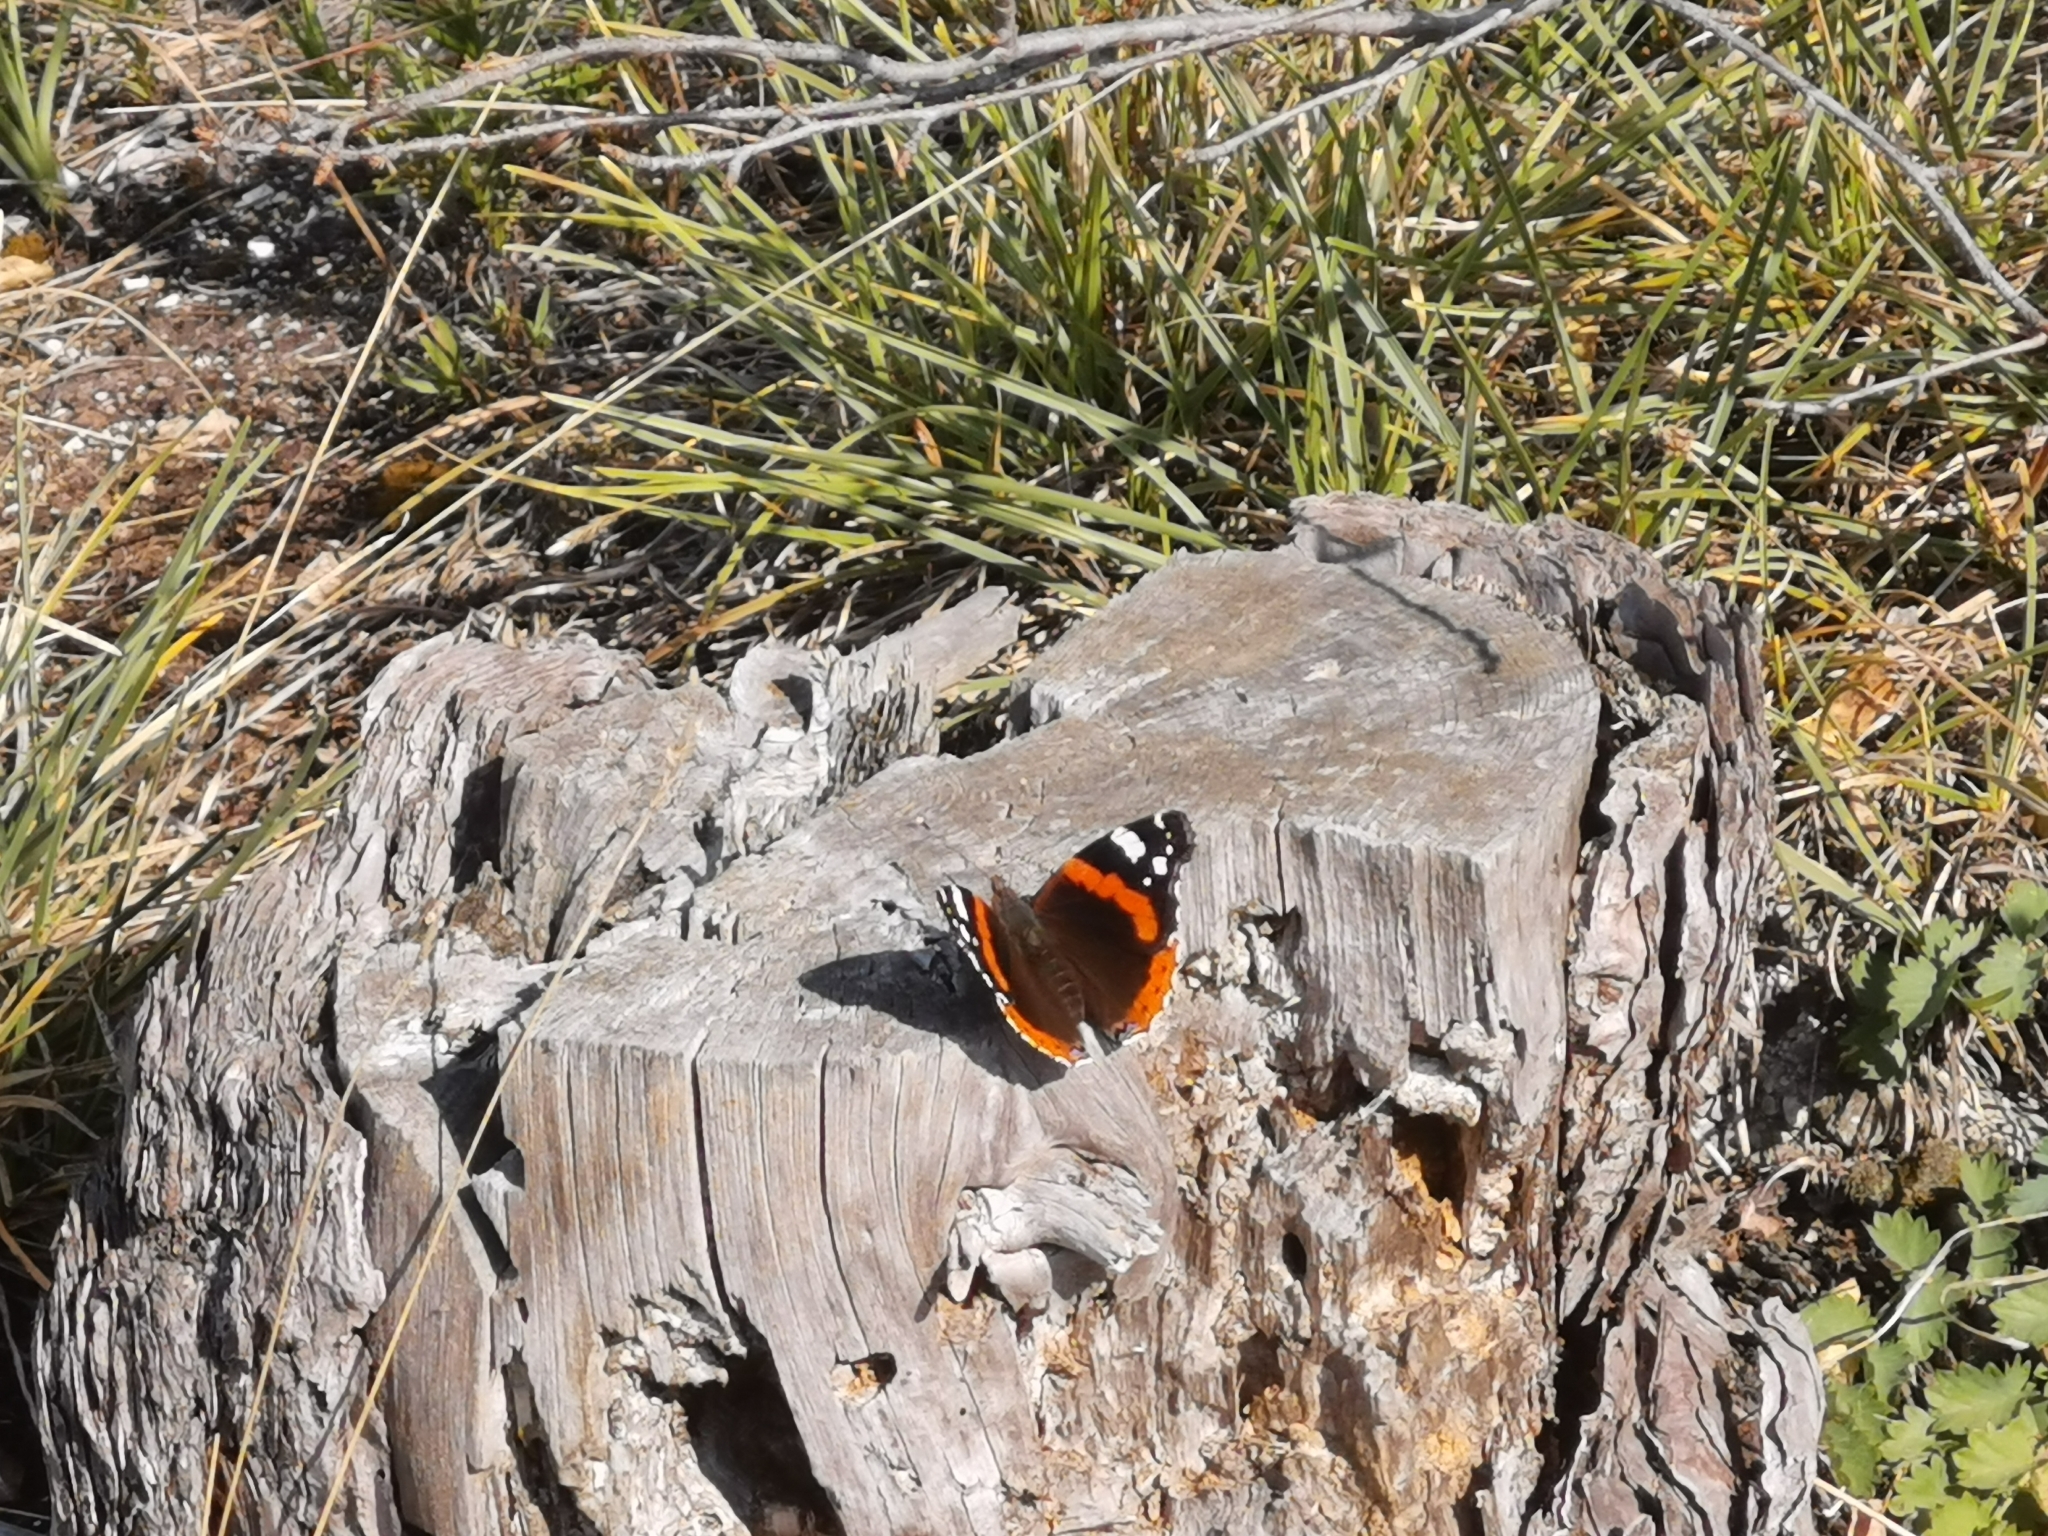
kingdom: Animalia
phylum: Arthropoda
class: Insecta
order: Lepidoptera
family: Nymphalidae
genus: Vanessa
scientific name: Vanessa atalanta
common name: Red admiral
